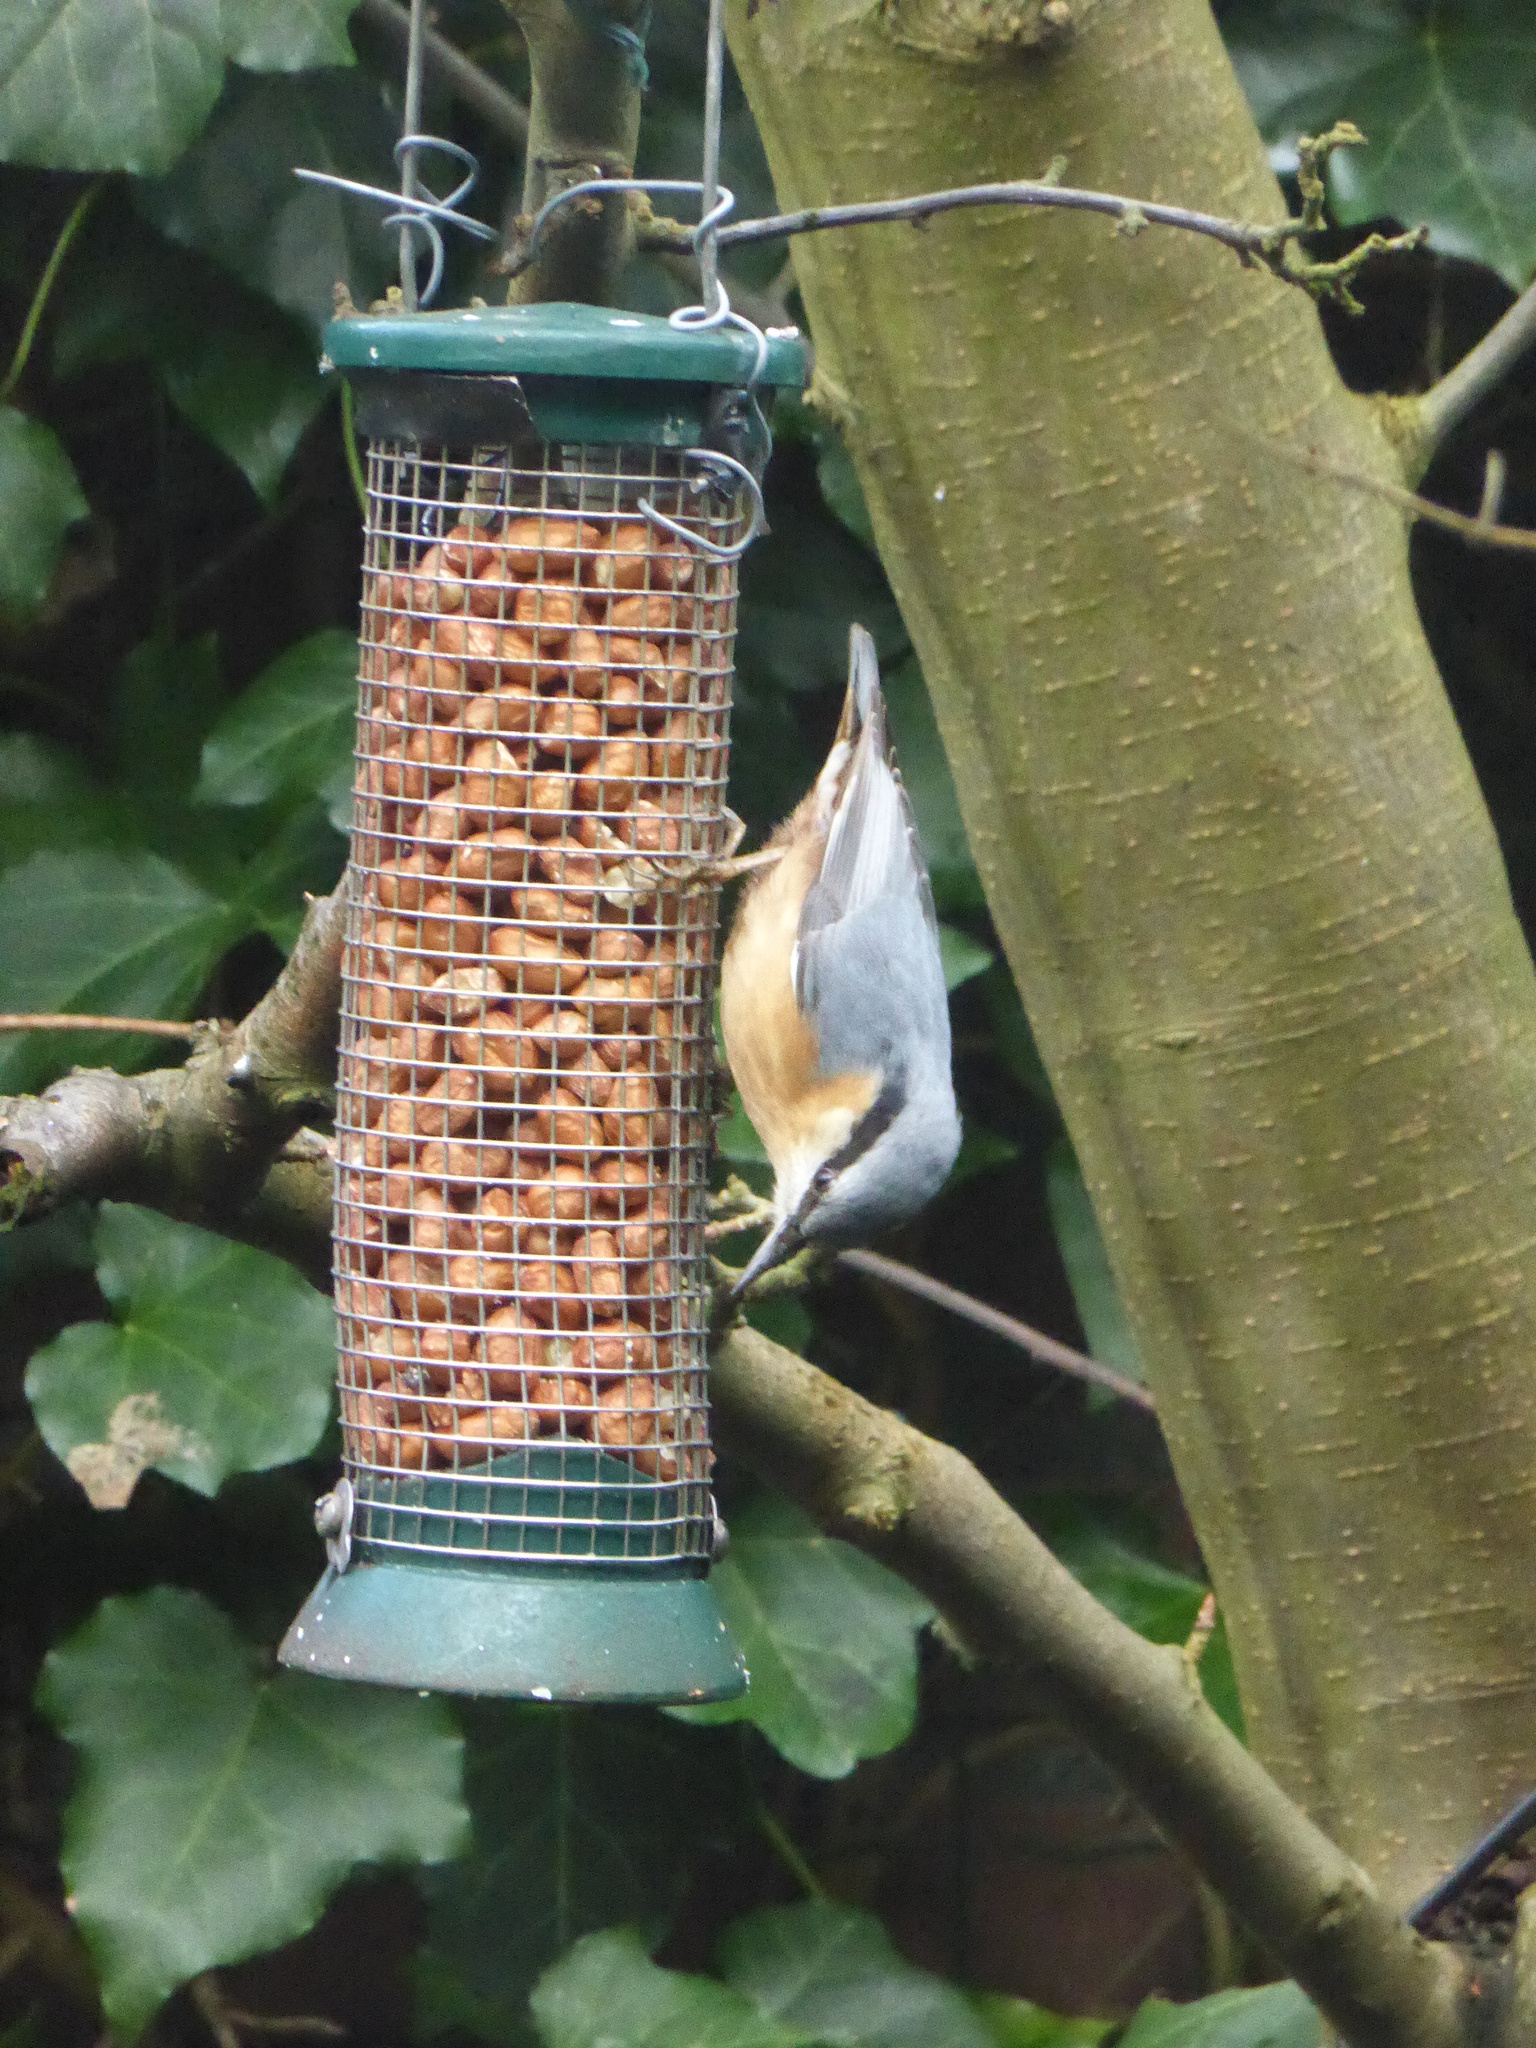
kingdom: Animalia
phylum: Chordata
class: Aves
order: Passeriformes
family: Sittidae
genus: Sitta
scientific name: Sitta europaea
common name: Eurasian nuthatch
